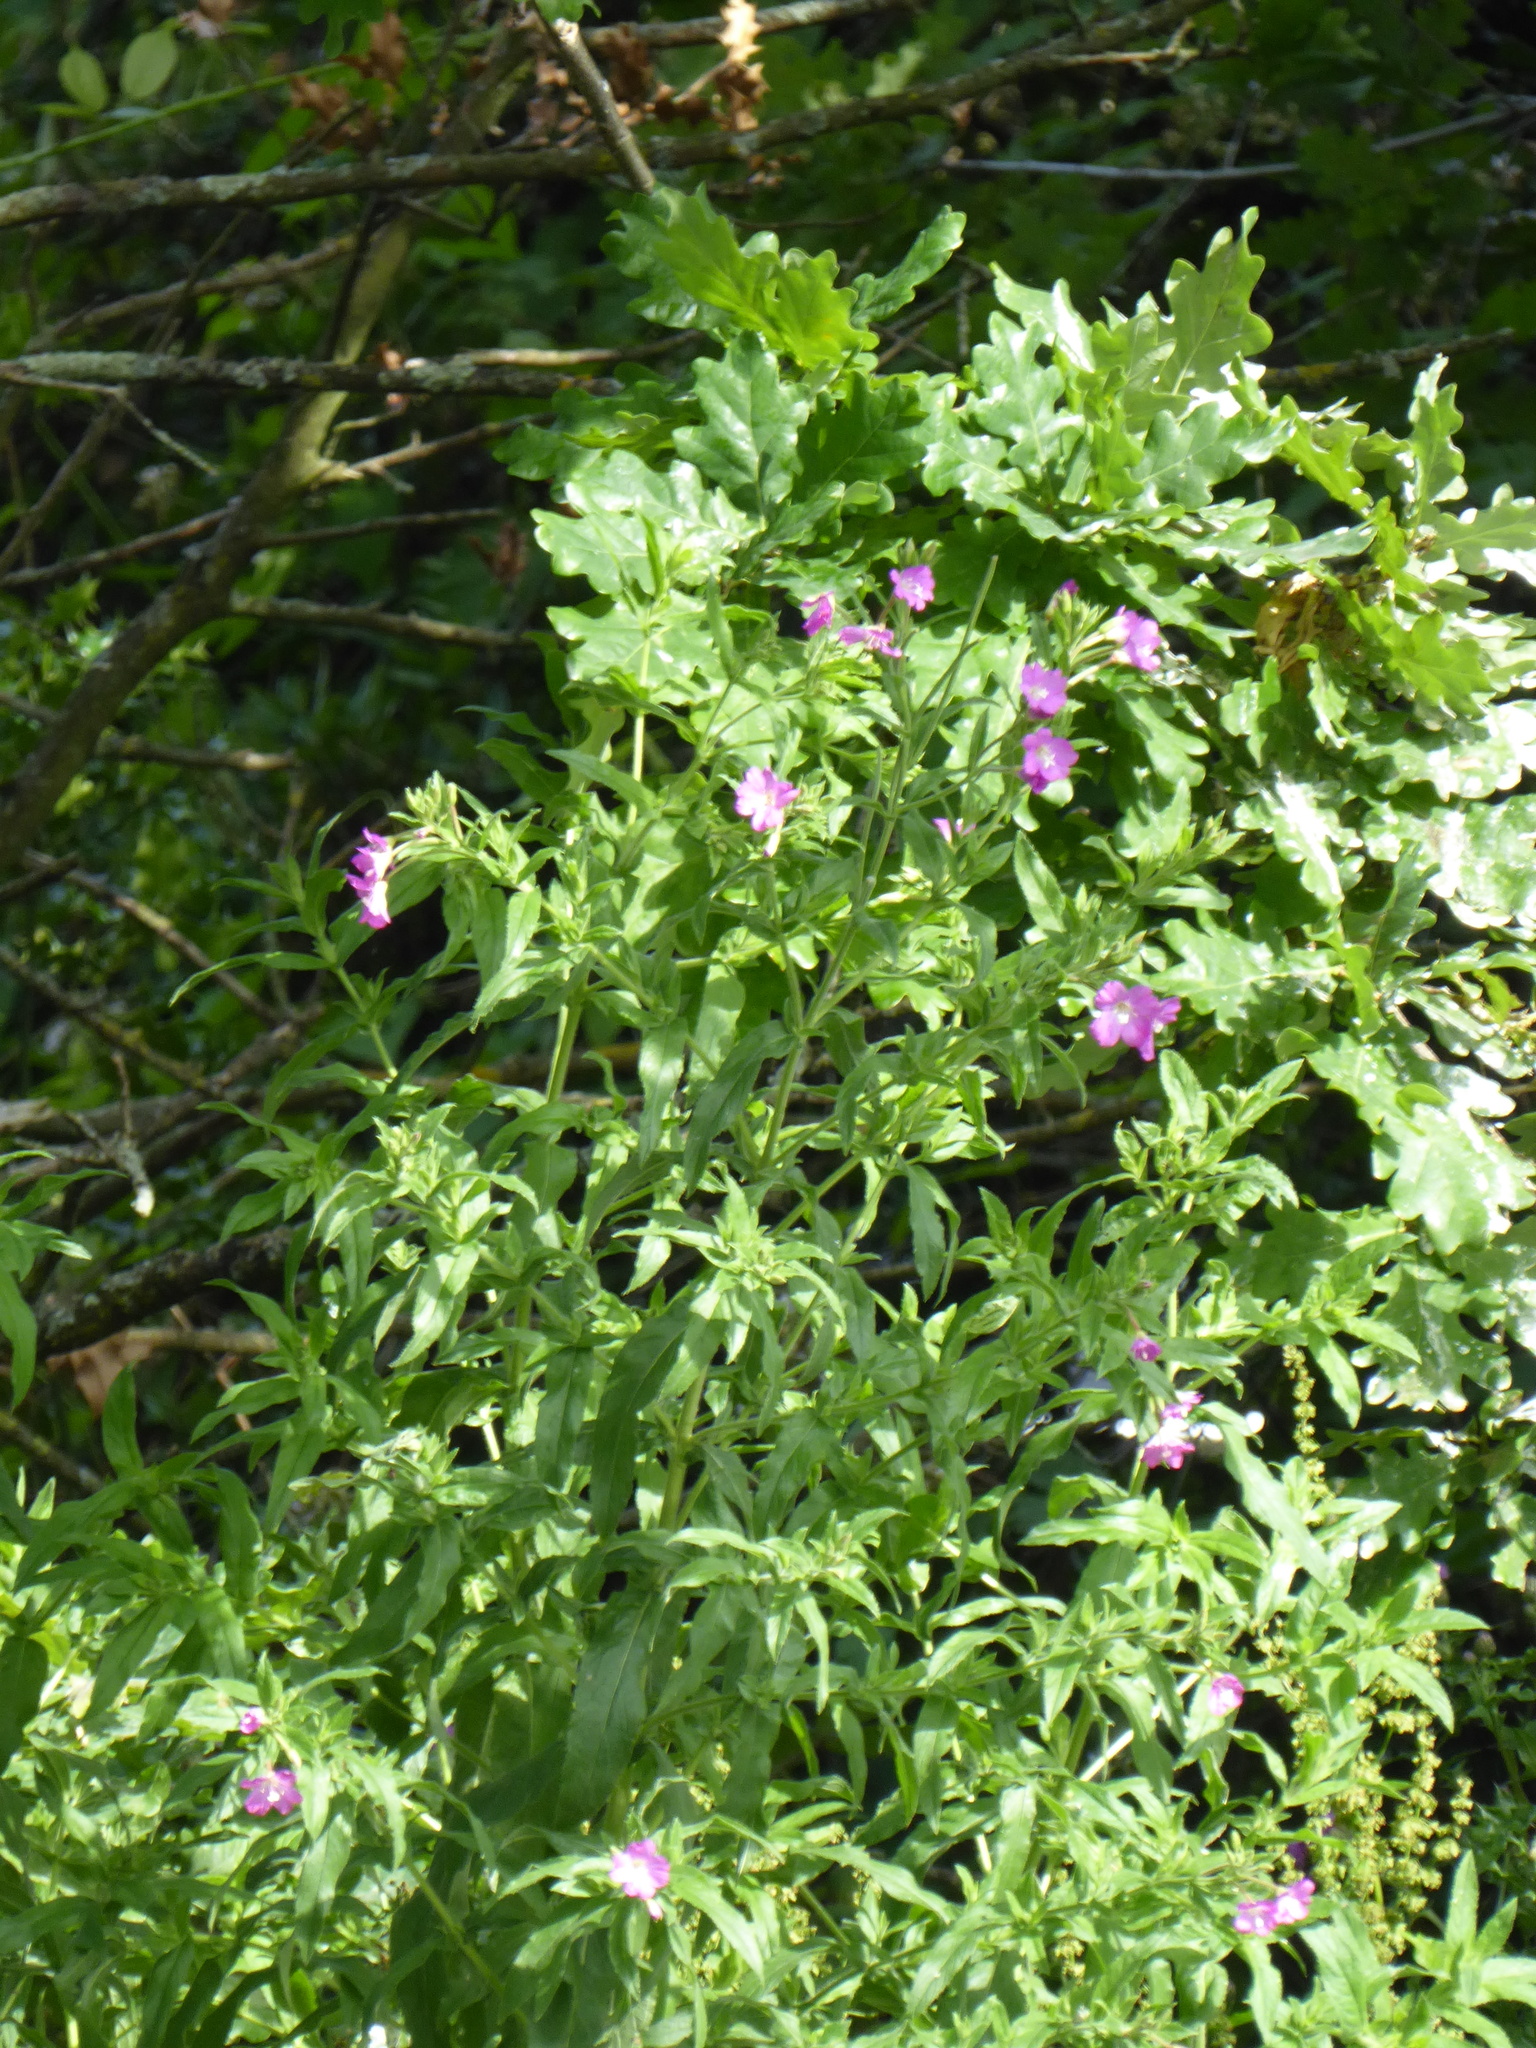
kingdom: Plantae
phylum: Tracheophyta
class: Magnoliopsida
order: Myrtales
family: Onagraceae
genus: Epilobium
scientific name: Epilobium hirsutum
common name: Great willowherb
